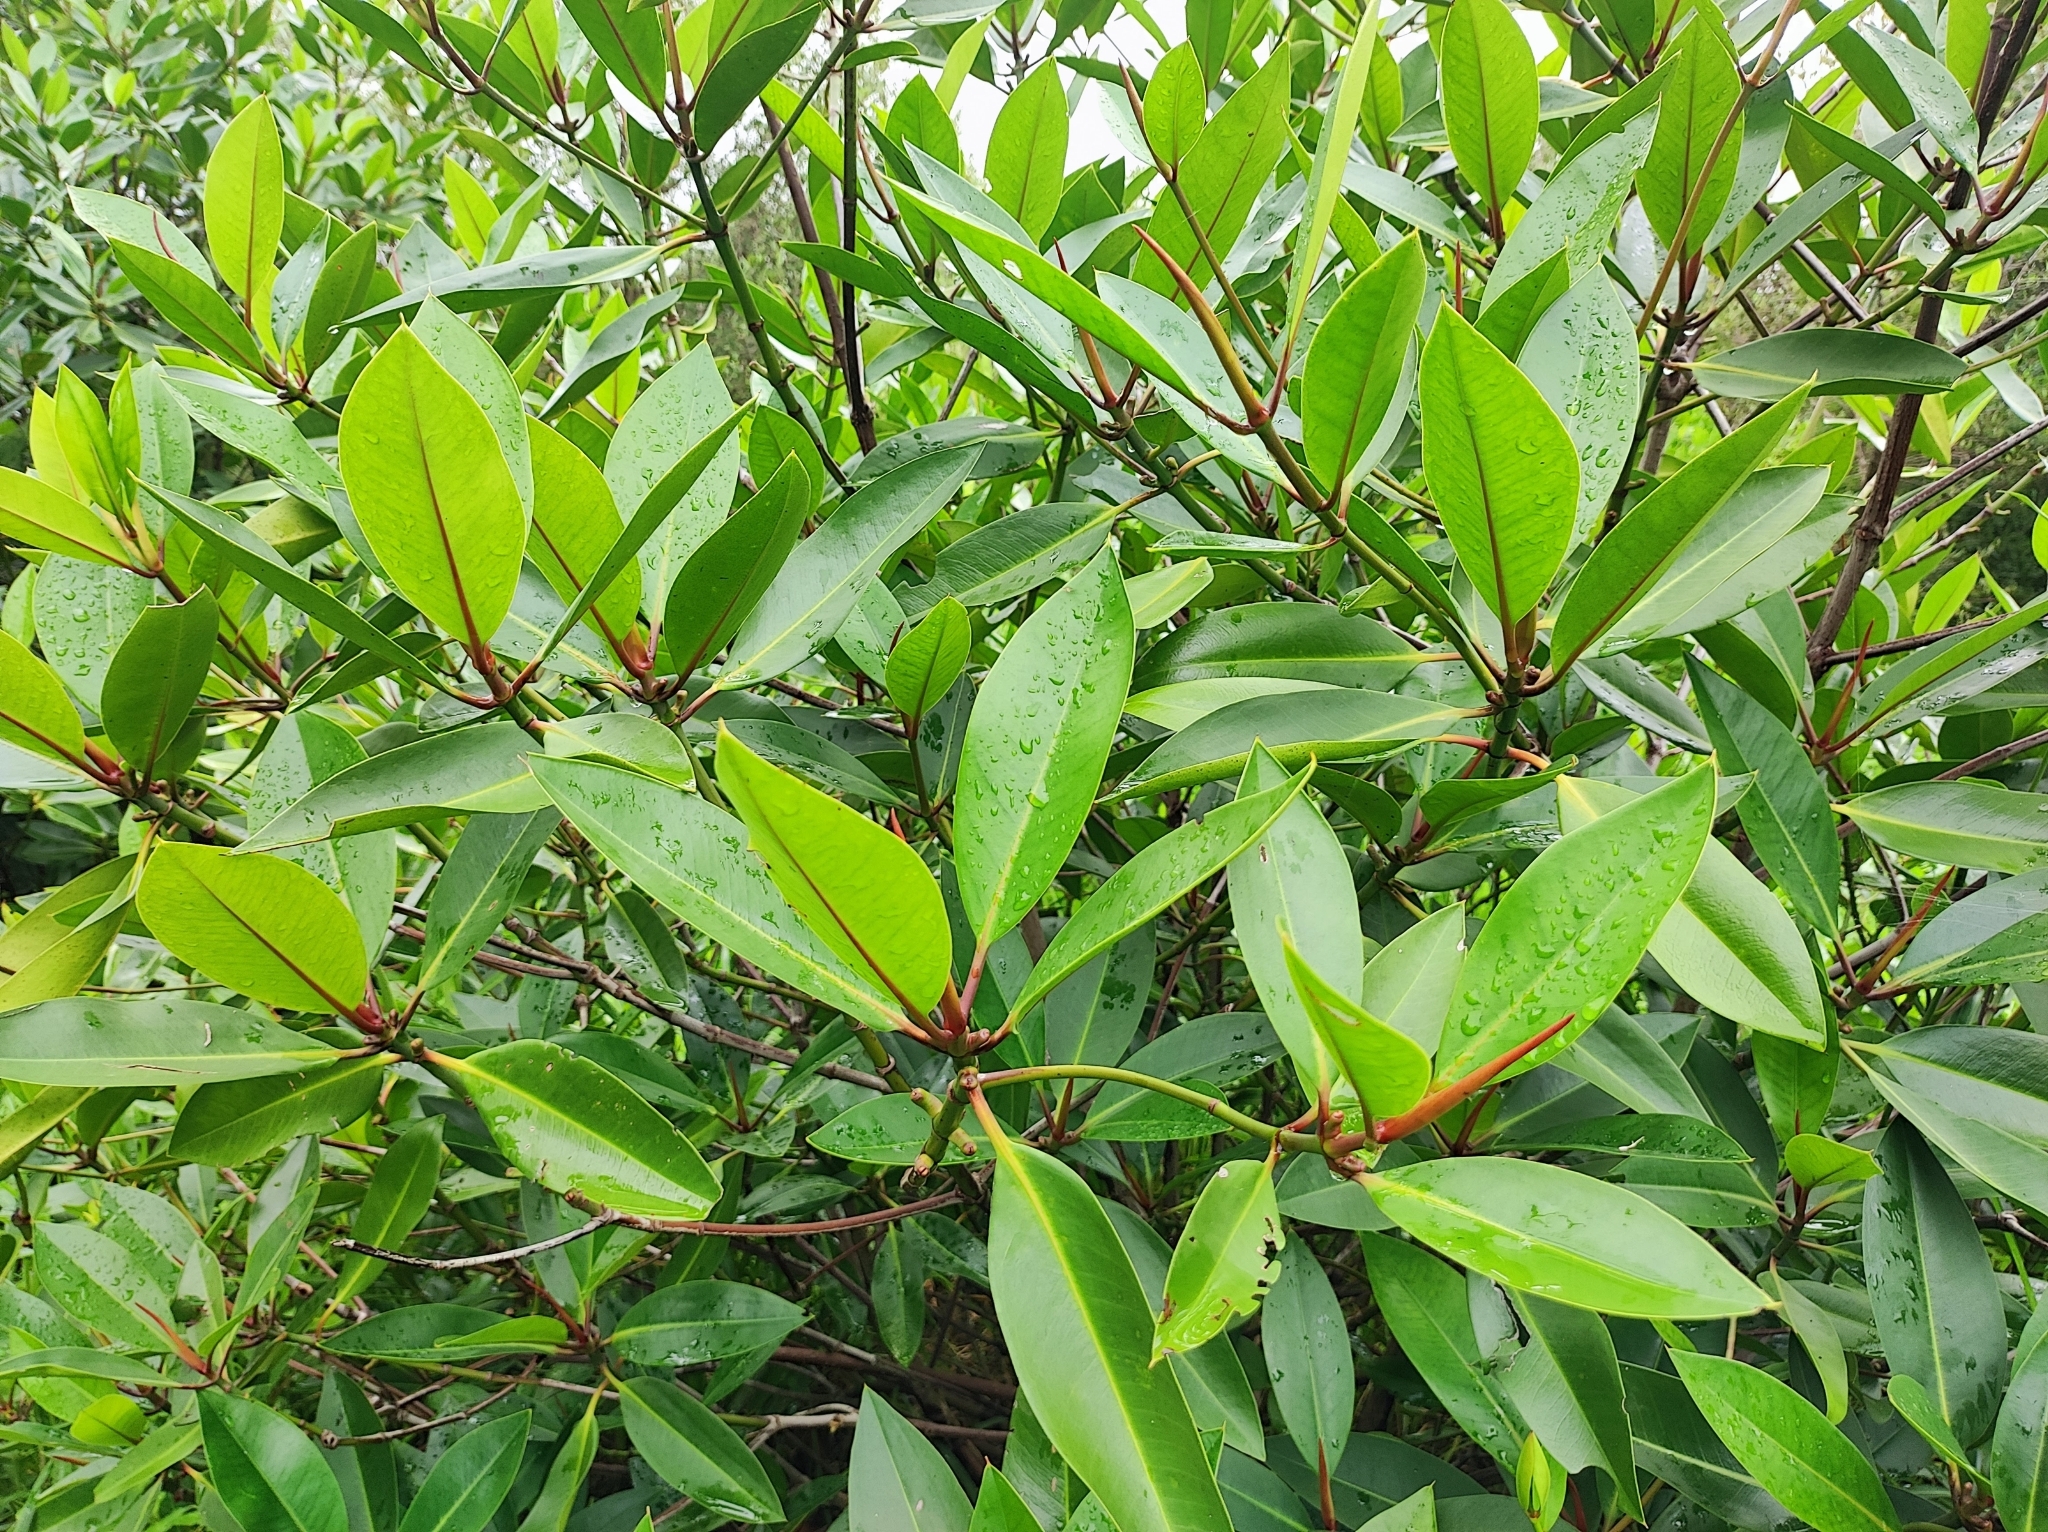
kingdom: Plantae
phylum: Tracheophyta
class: Magnoliopsida
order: Malpighiales
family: Rhizophoraceae
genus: Rhizophora
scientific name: Rhizophora apiculata
